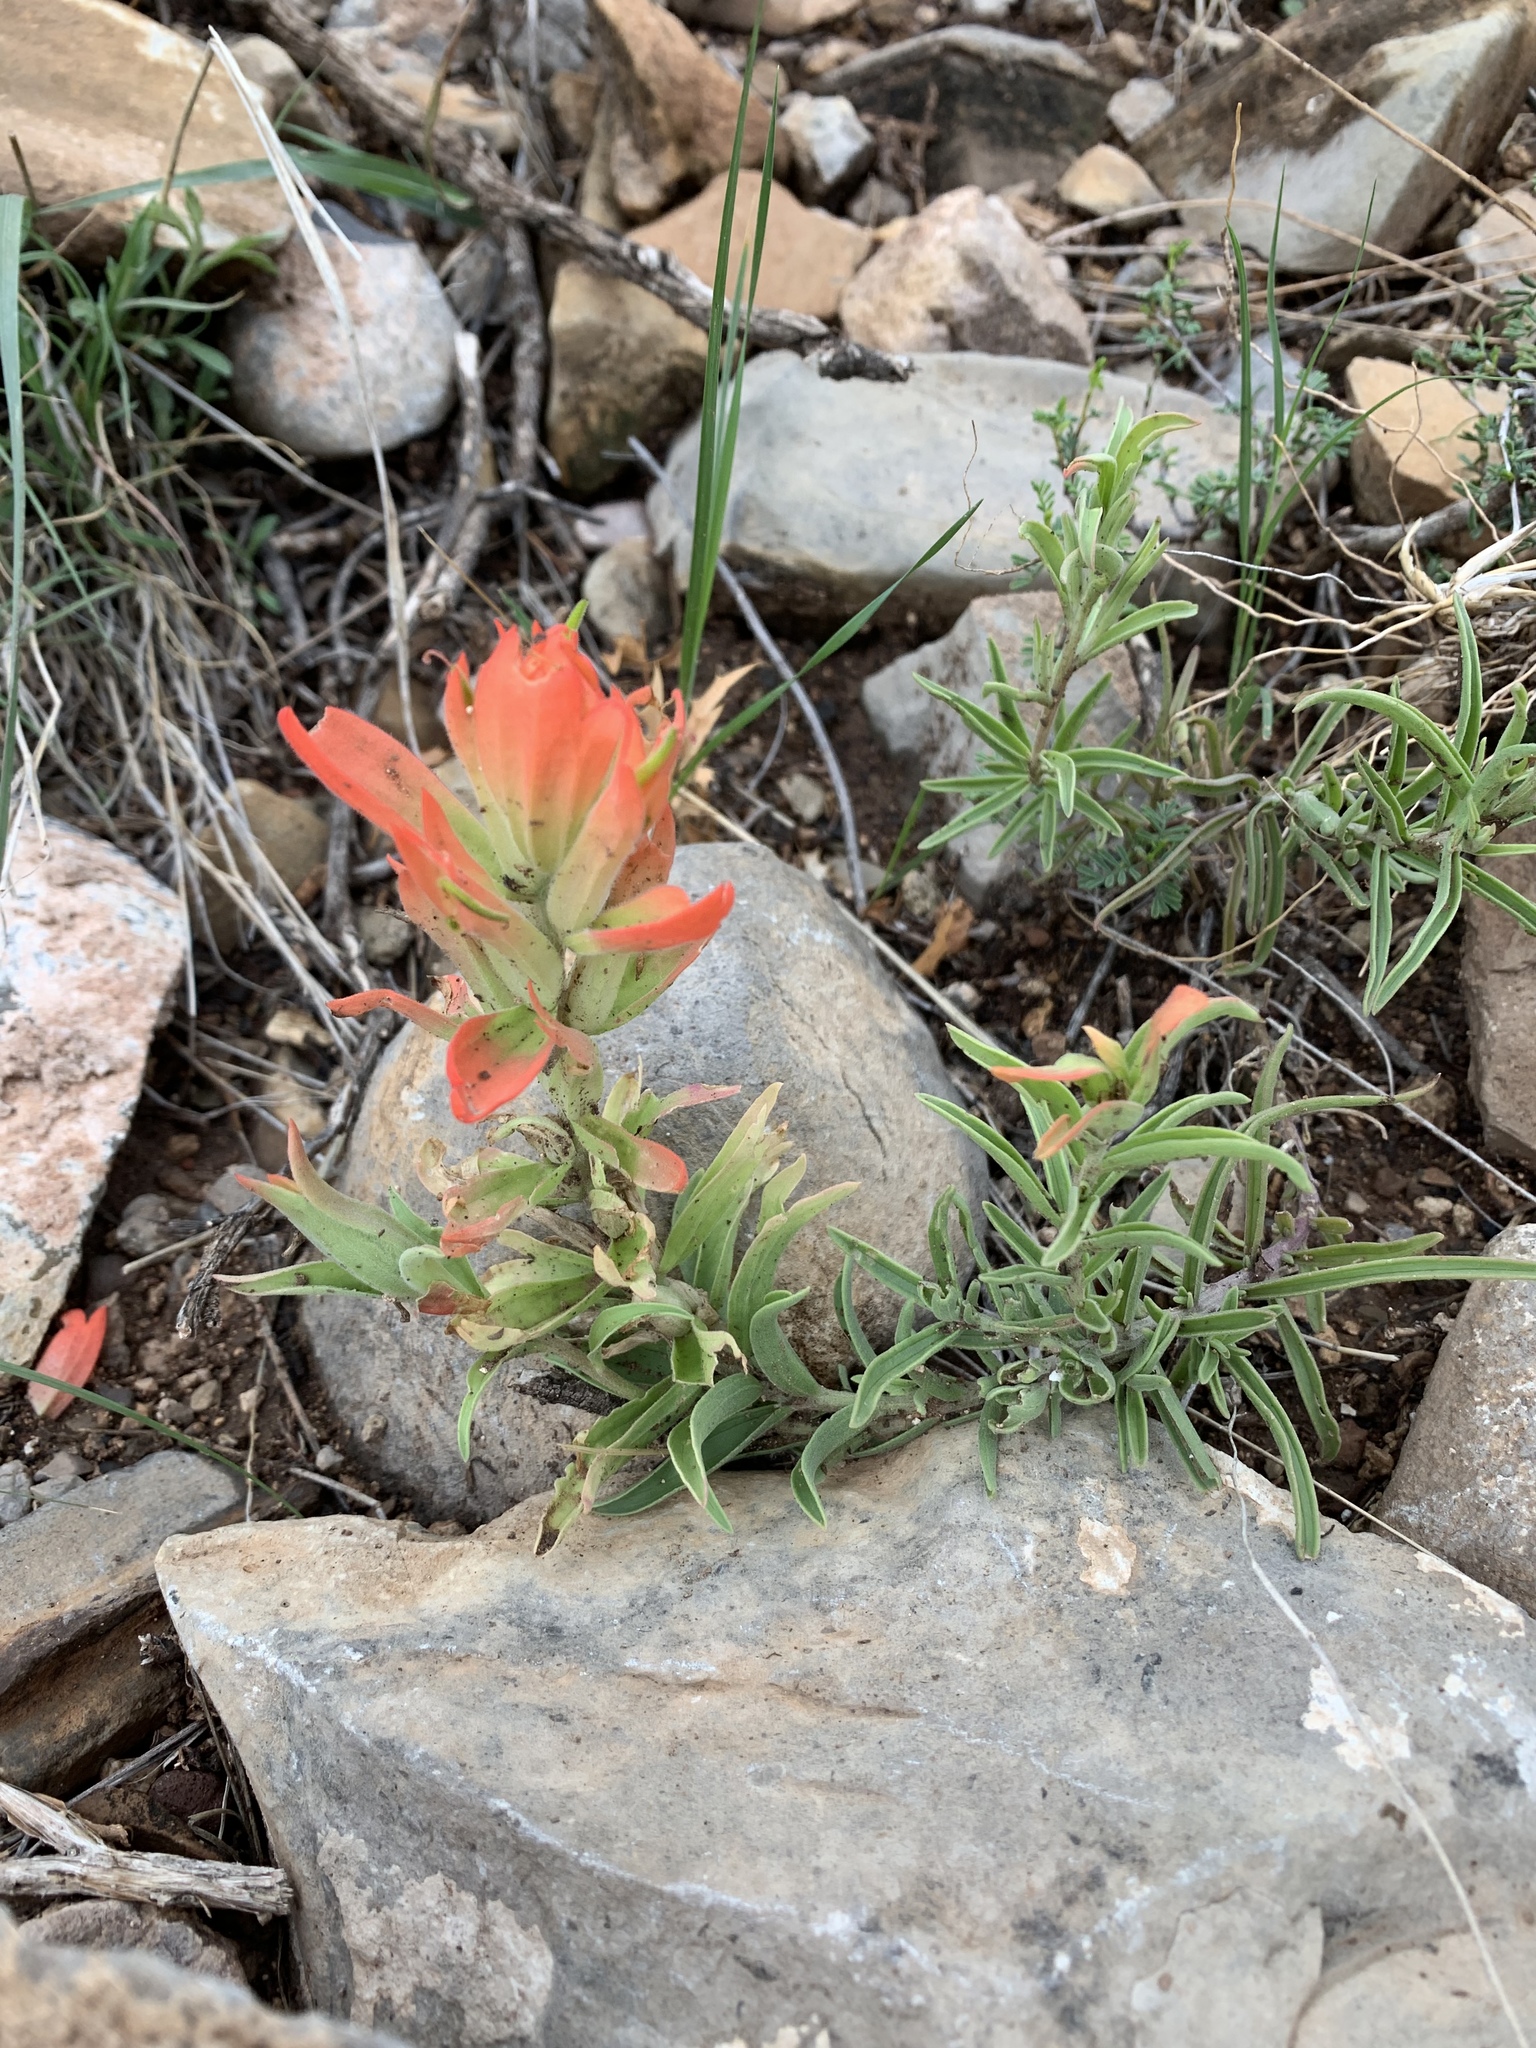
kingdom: Plantae
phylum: Tracheophyta
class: Magnoliopsida
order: Lamiales
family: Orobanchaceae
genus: Castilleja
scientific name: Castilleja integra
